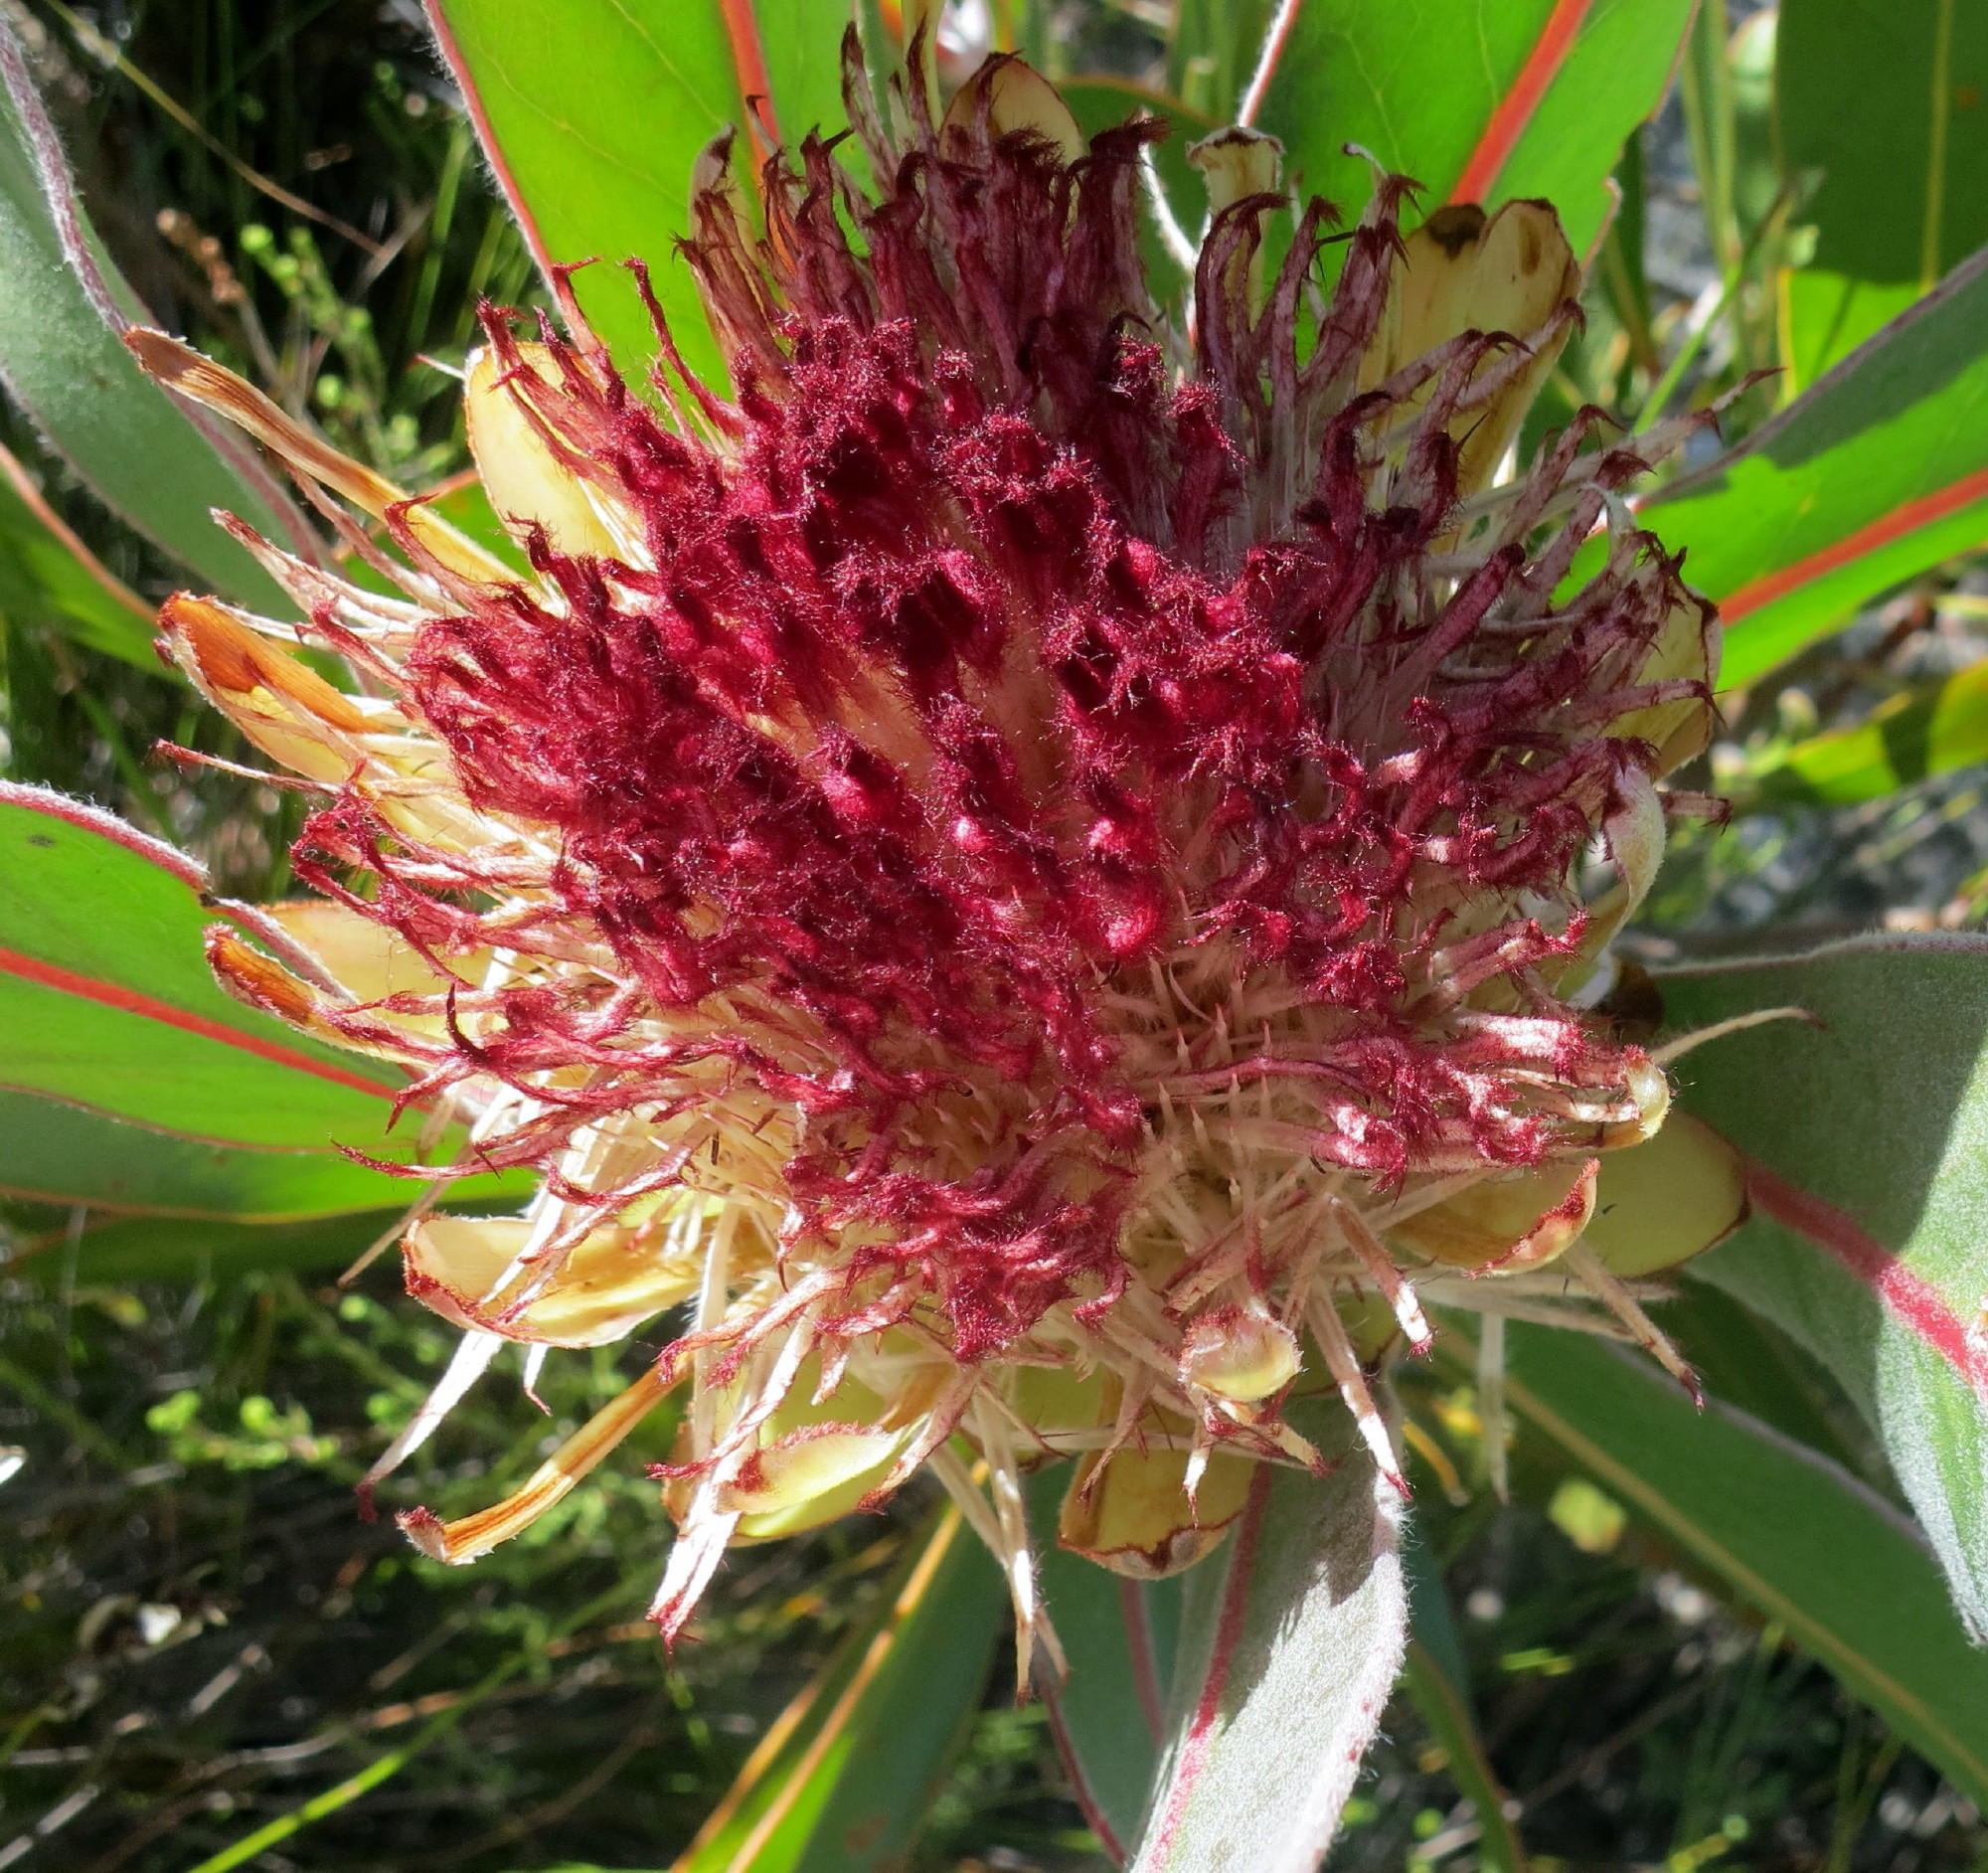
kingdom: Plantae
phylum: Tracheophyta
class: Magnoliopsida
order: Proteales
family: Proteaceae
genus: Protea
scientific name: Protea lorifolia
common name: Strap-leaved protea
